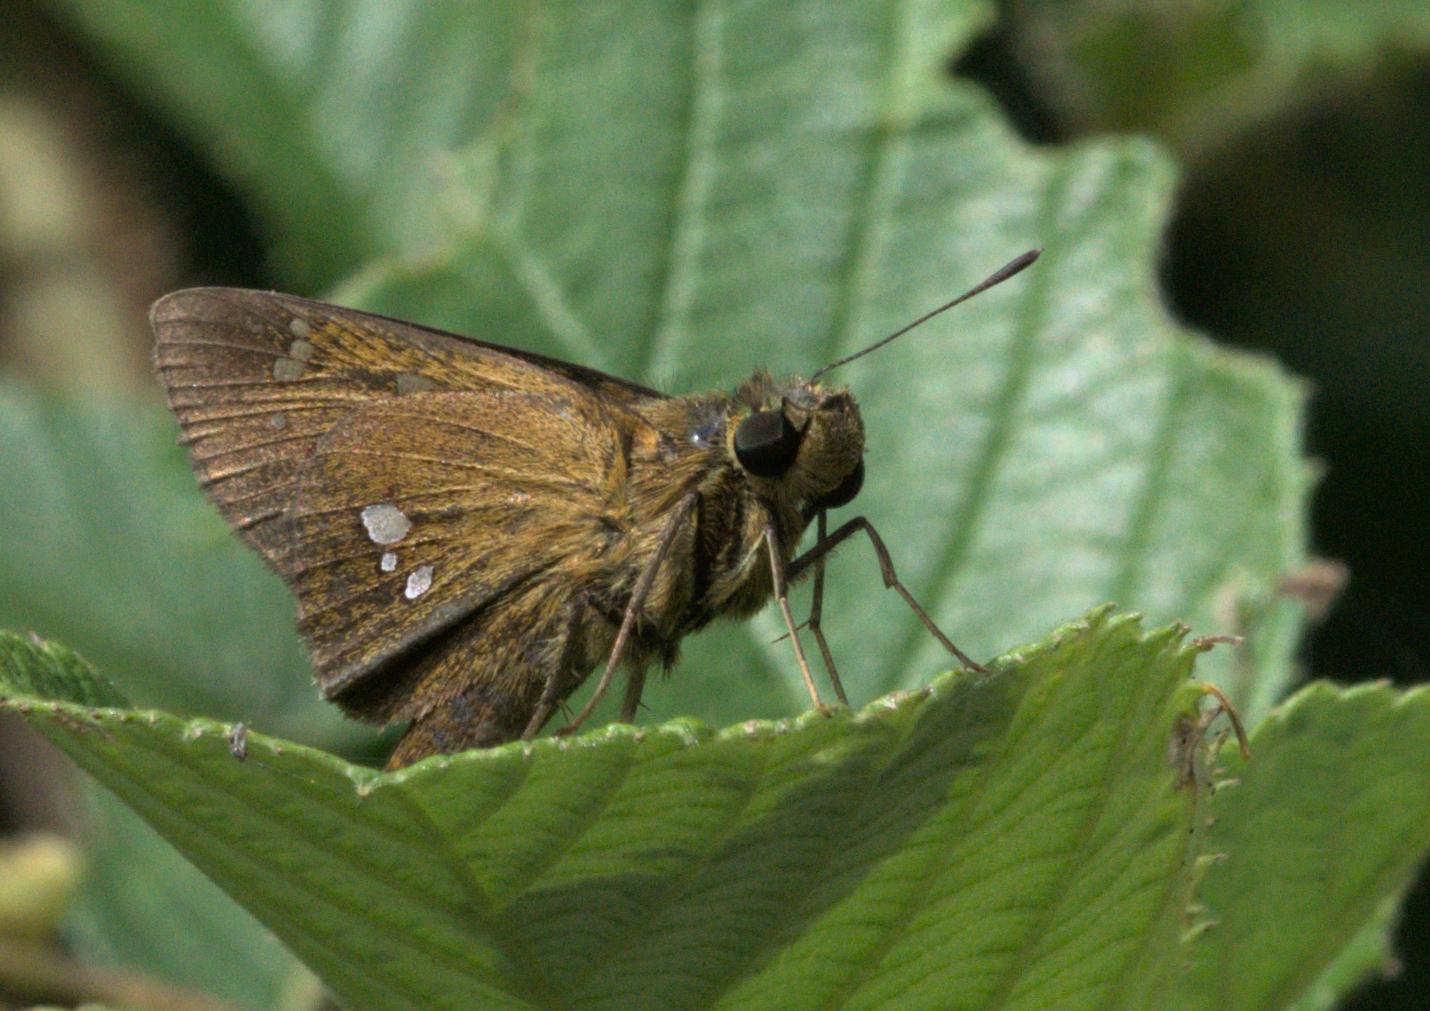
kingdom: Animalia
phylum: Arthropoda
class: Insecta
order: Lepidoptera
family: Hesperiidae
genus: Polytremis
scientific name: Polytremis eltola
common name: Yellow-spot swift
